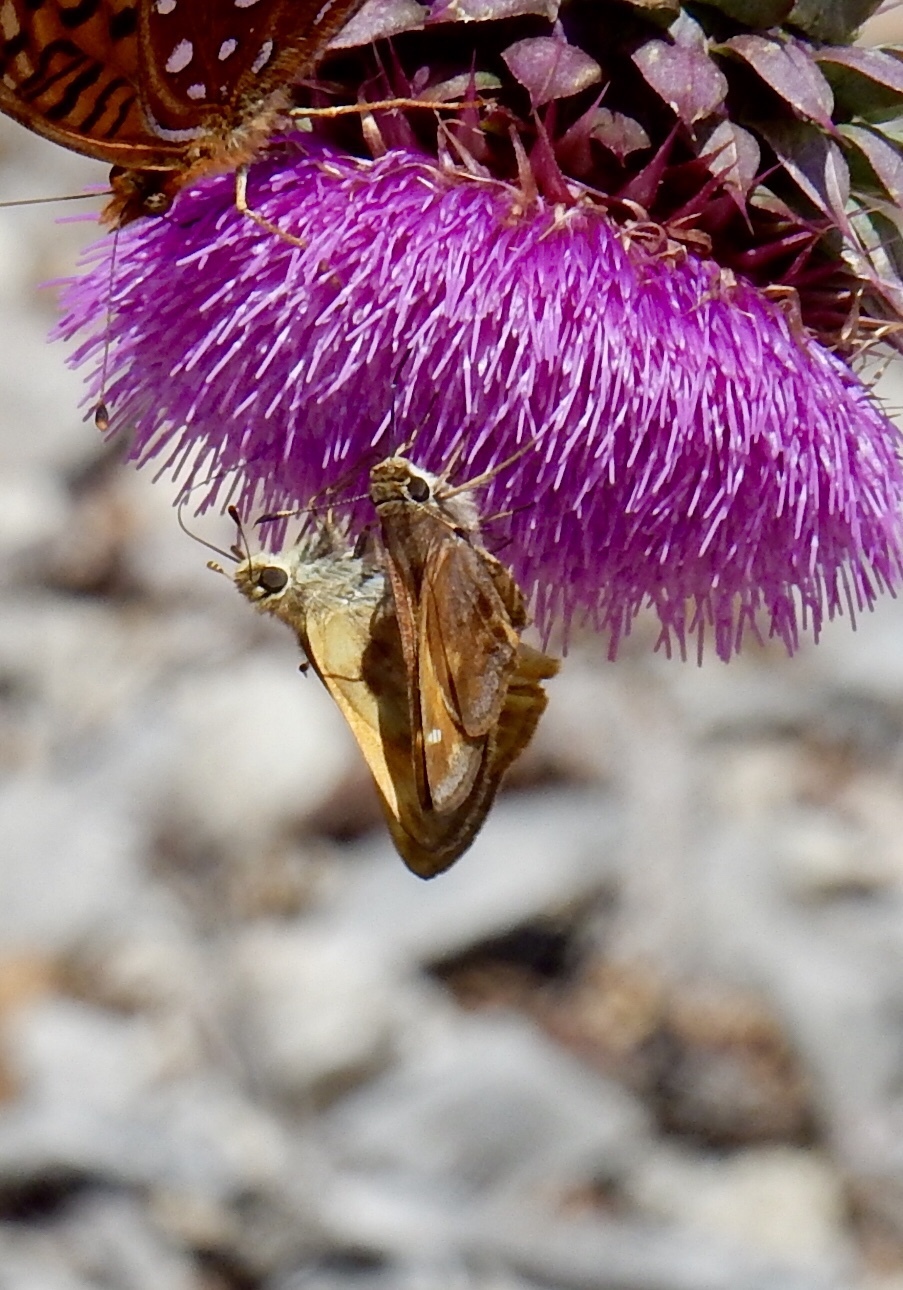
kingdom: Animalia
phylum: Arthropoda
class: Insecta
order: Lepidoptera
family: Hesperiidae
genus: Lon
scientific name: Lon taxiles
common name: Taxiles skipper
